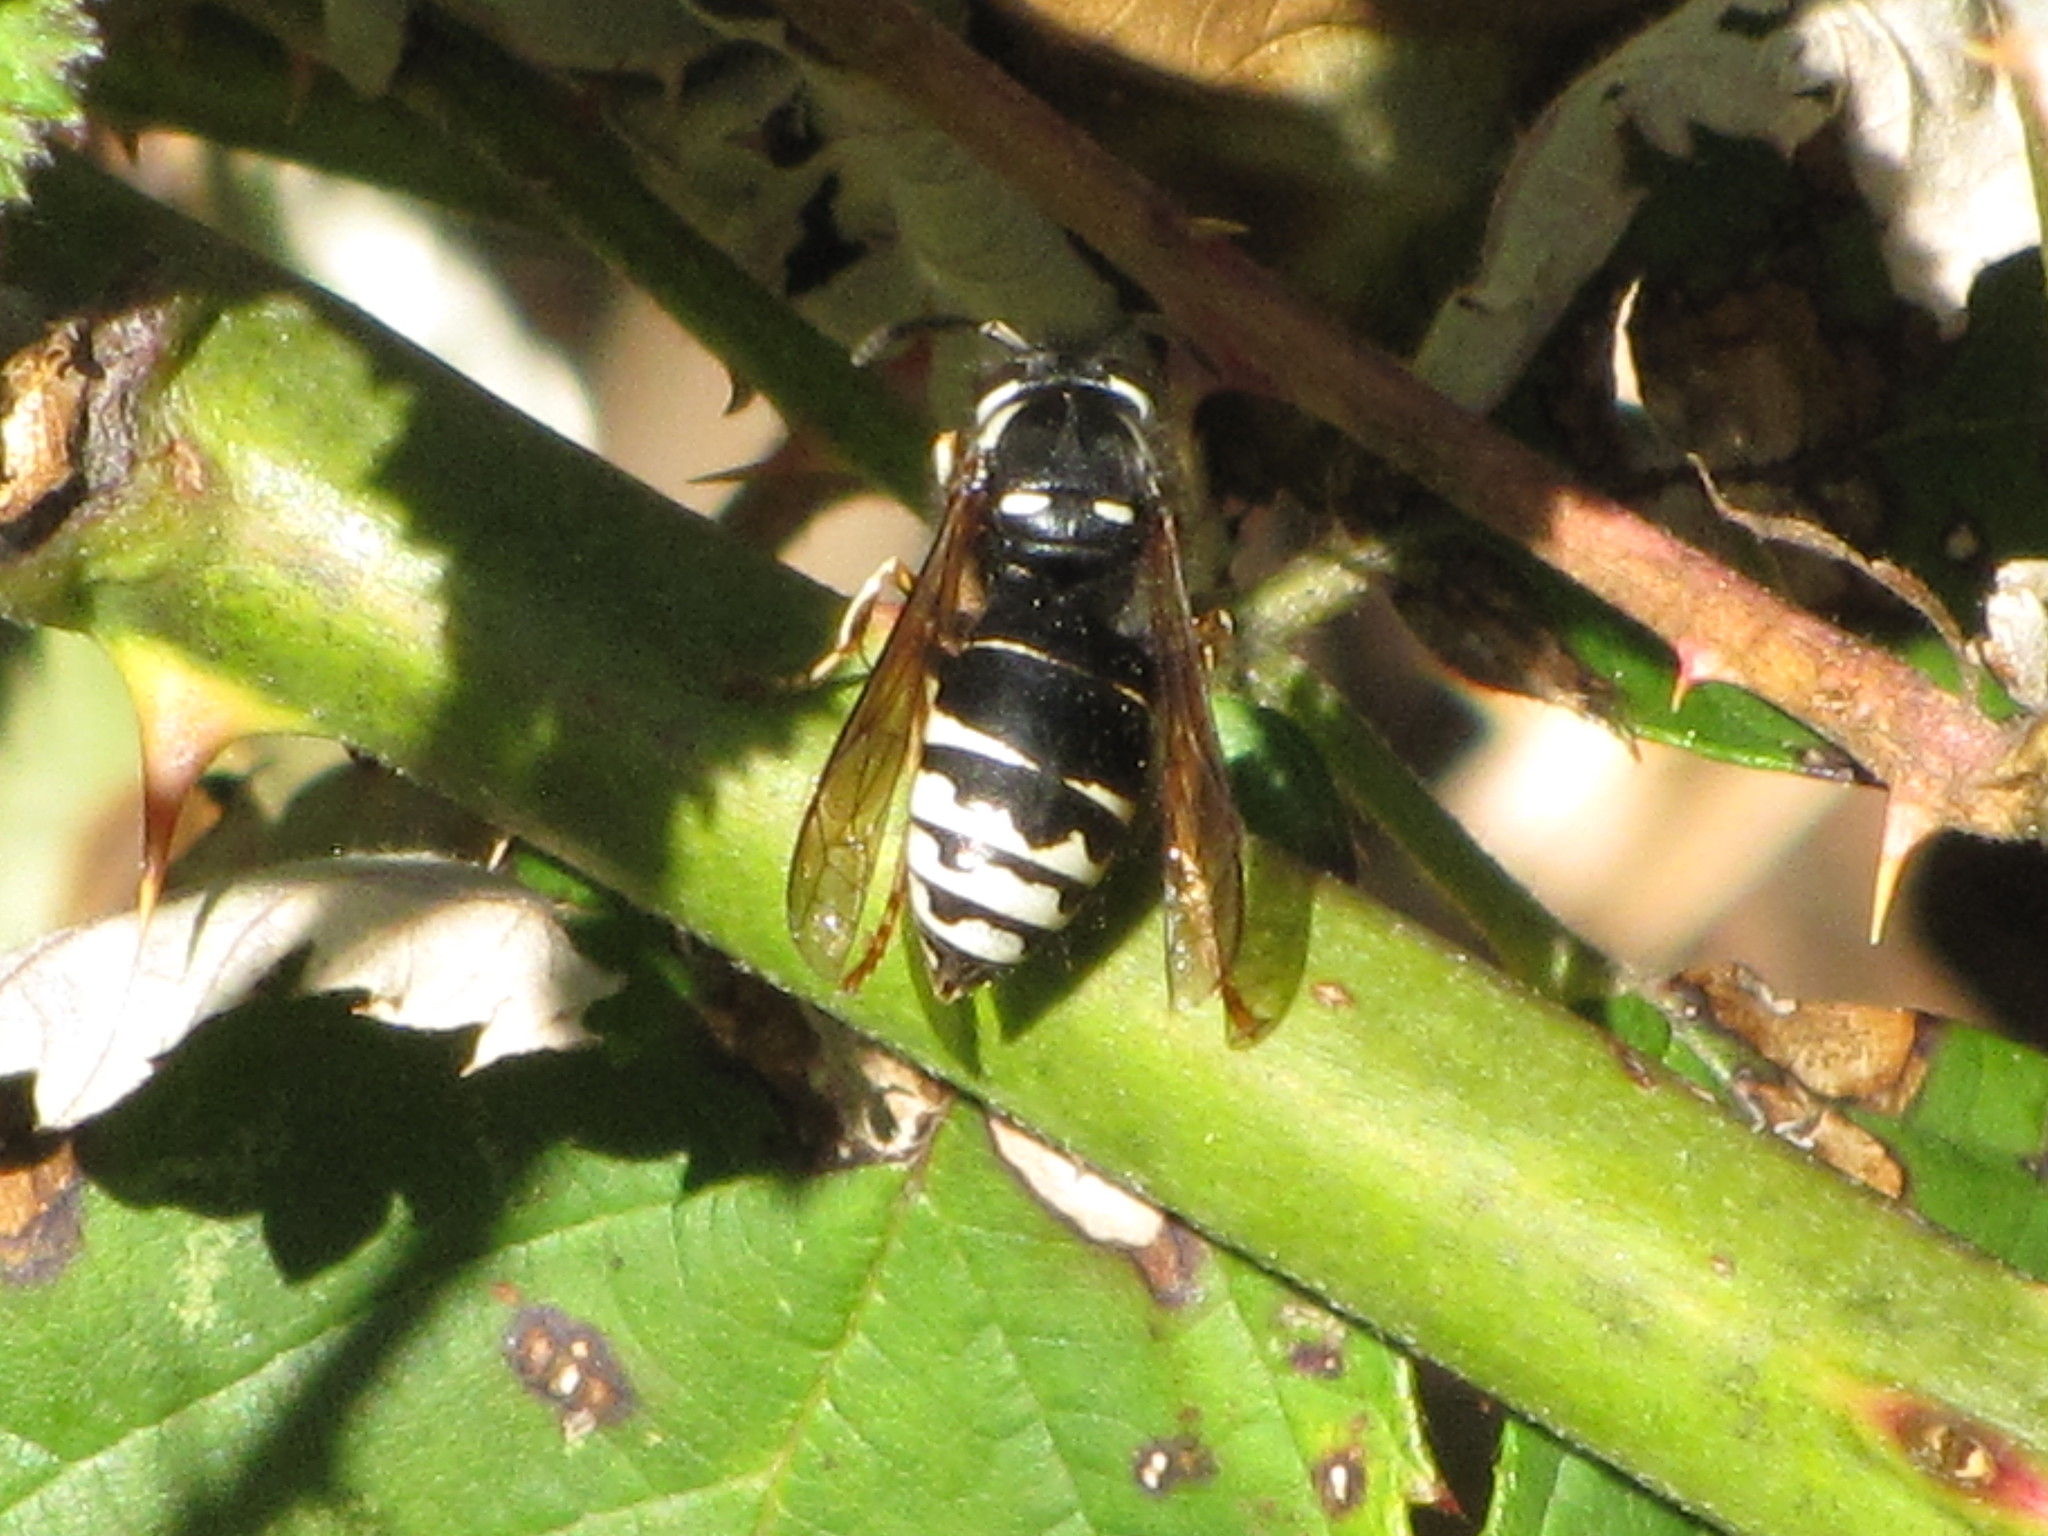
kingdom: Animalia
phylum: Arthropoda
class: Insecta
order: Hymenoptera
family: Vespidae
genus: Vespula
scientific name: Vespula consobrina
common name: Blackjacket
